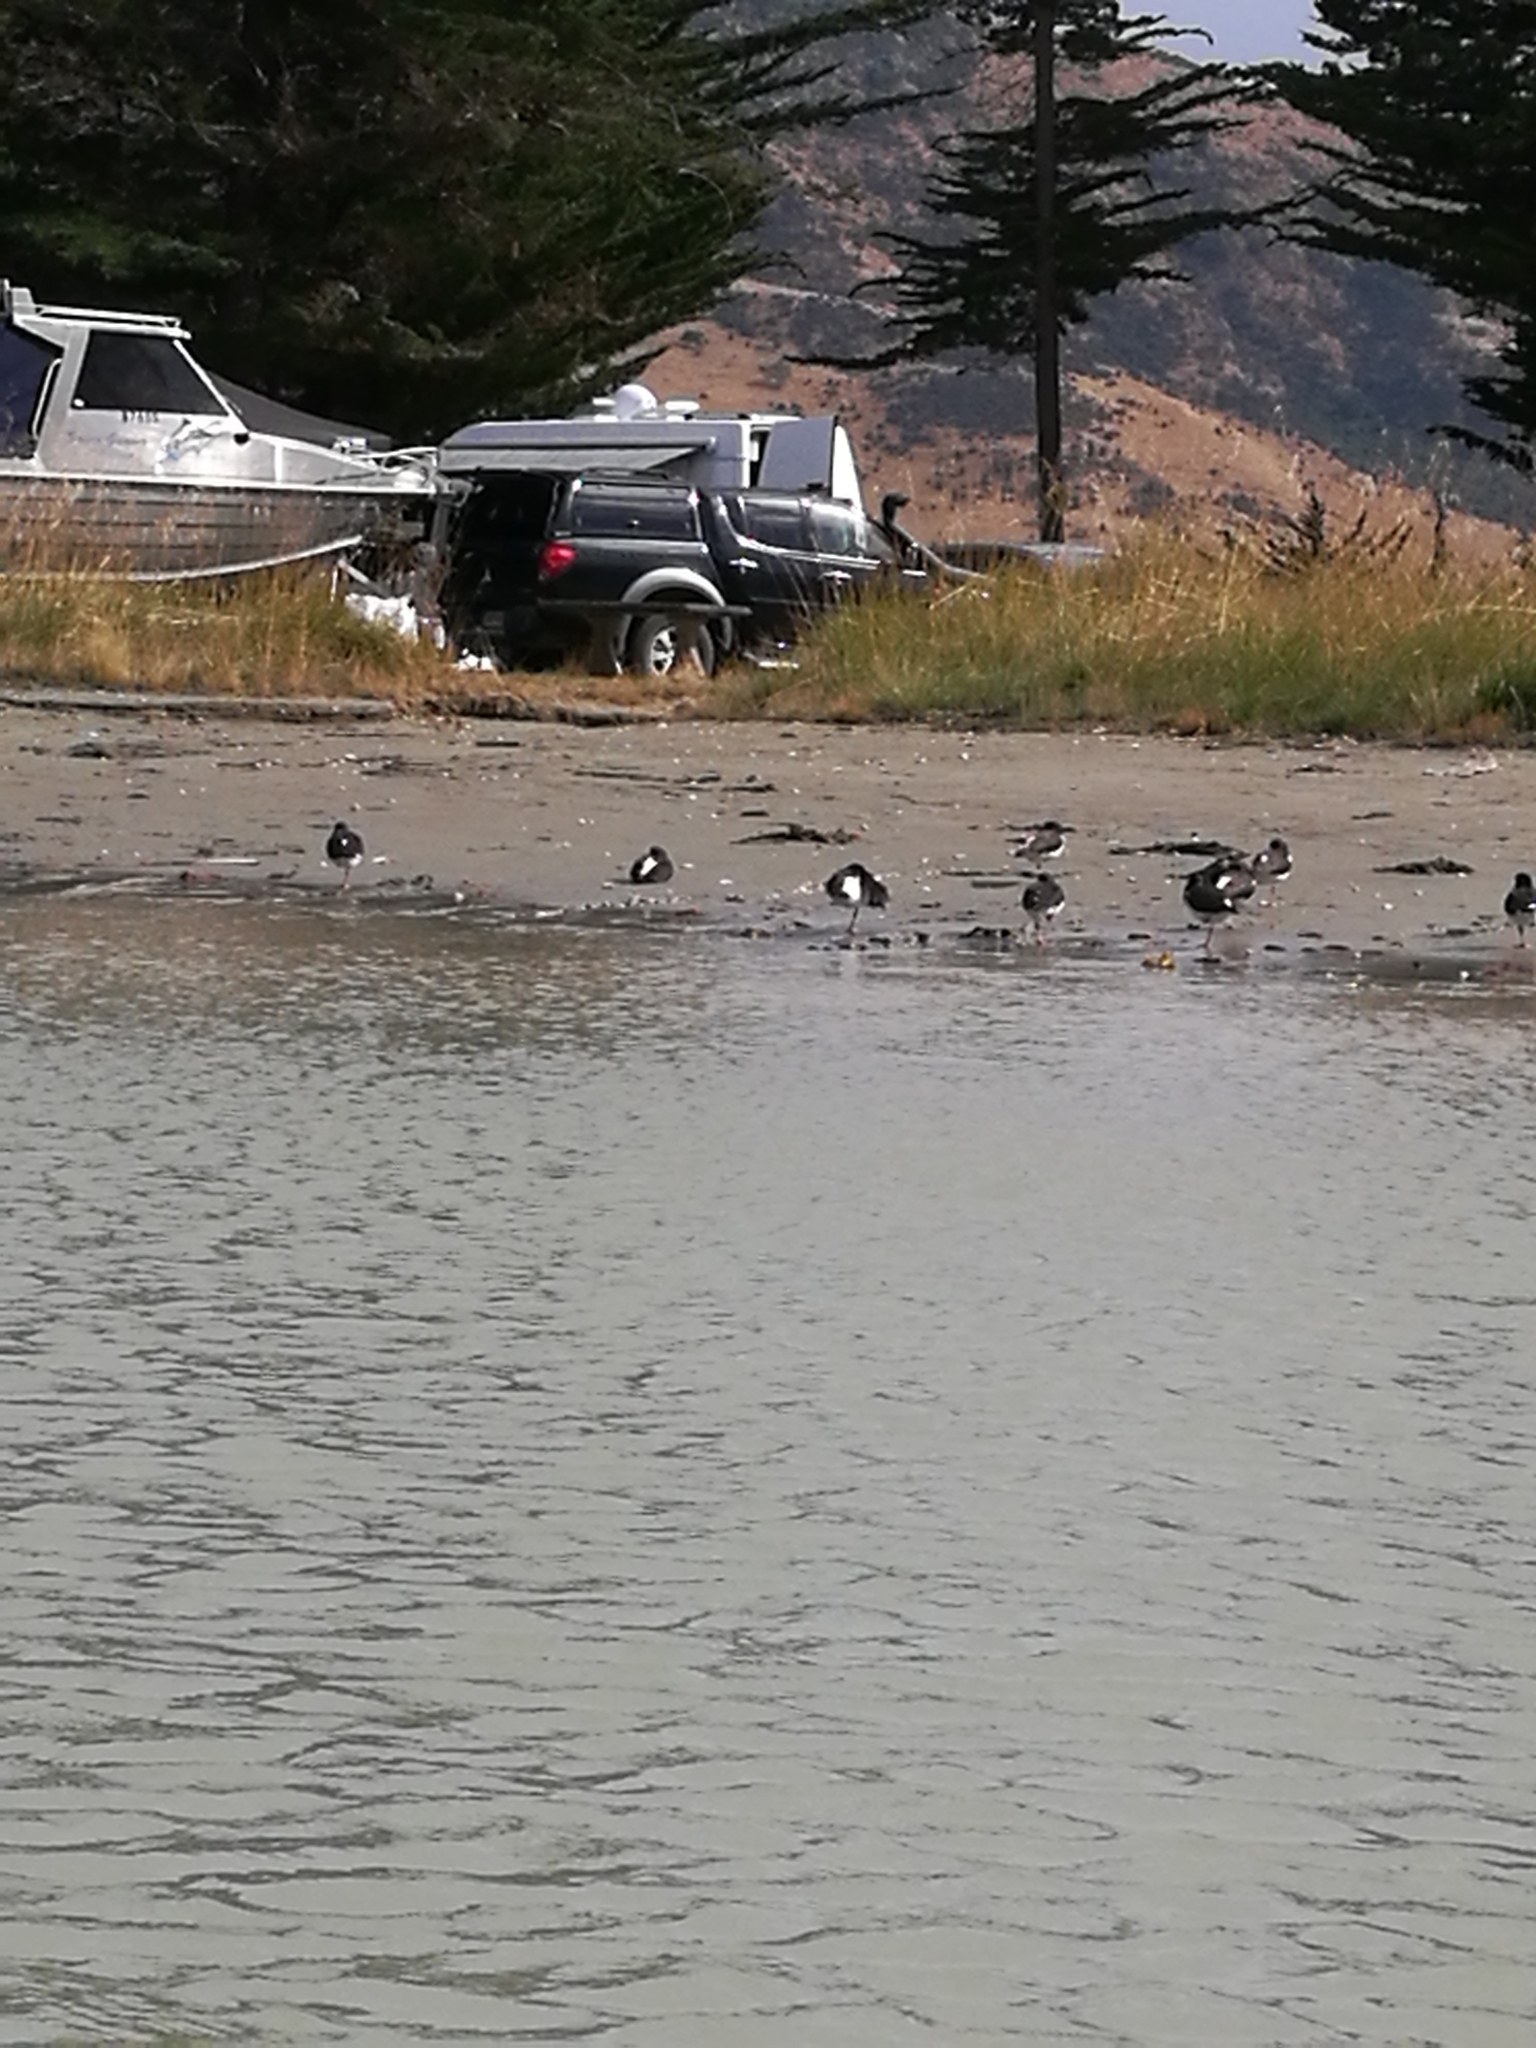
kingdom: Animalia
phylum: Chordata
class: Aves
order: Charadriiformes
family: Haematopodidae
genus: Haematopus
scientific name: Haematopus finschi
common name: South island oystercatcher
